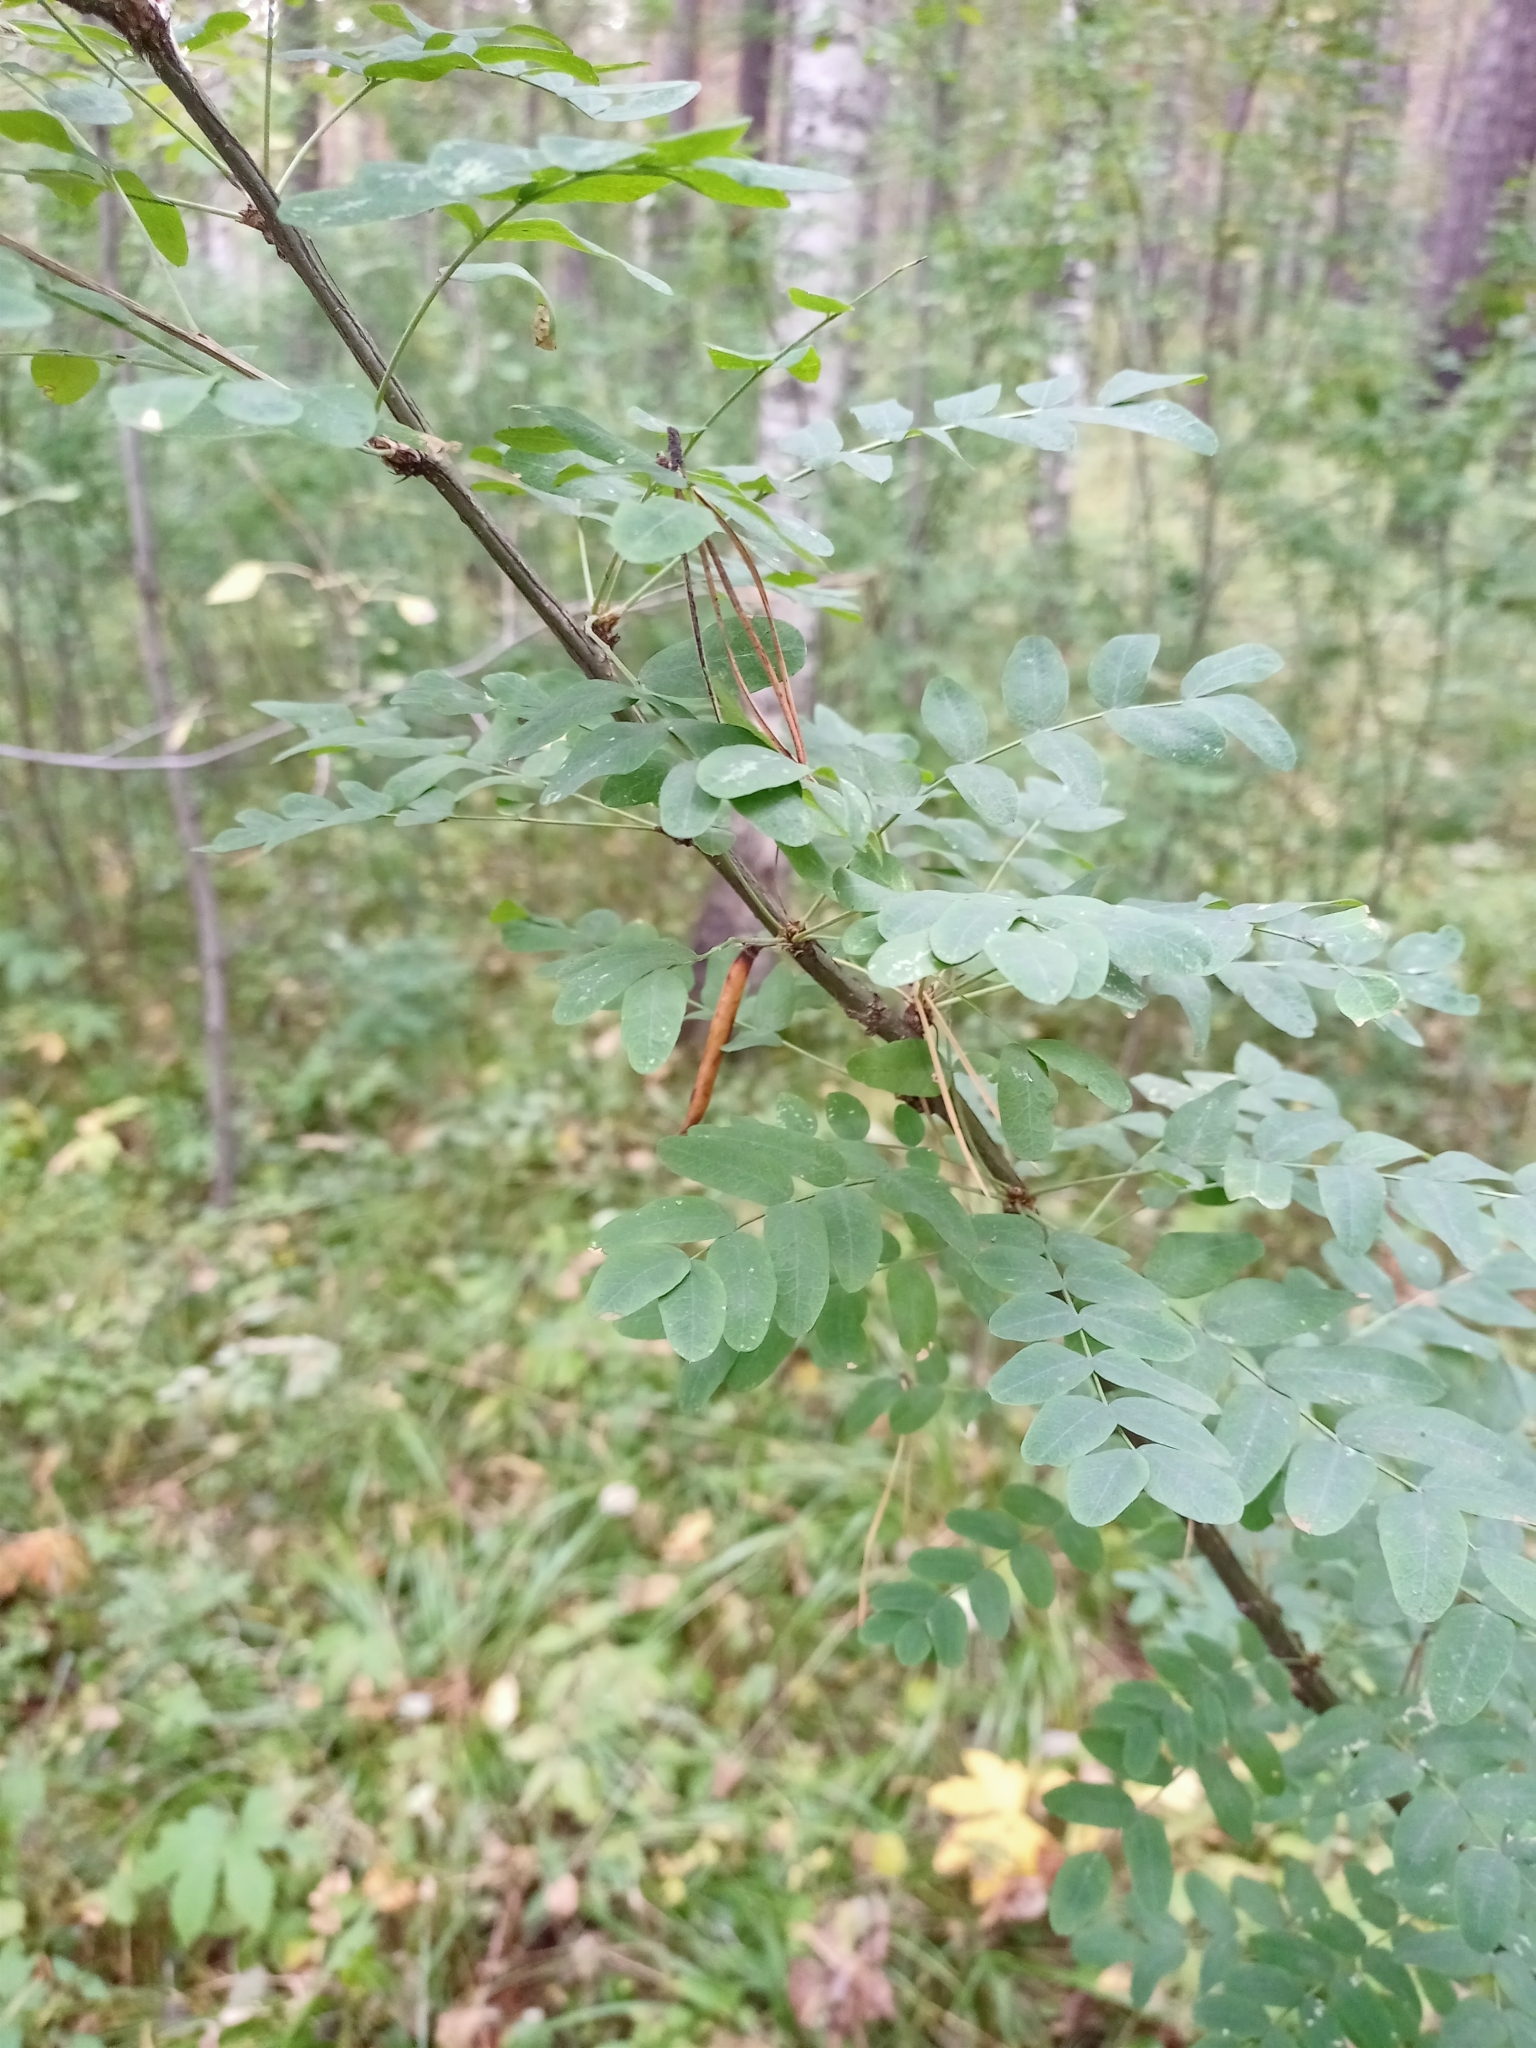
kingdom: Plantae
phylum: Tracheophyta
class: Magnoliopsida
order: Fabales
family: Fabaceae
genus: Caragana
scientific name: Caragana arborescens
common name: Siberian peashrub
